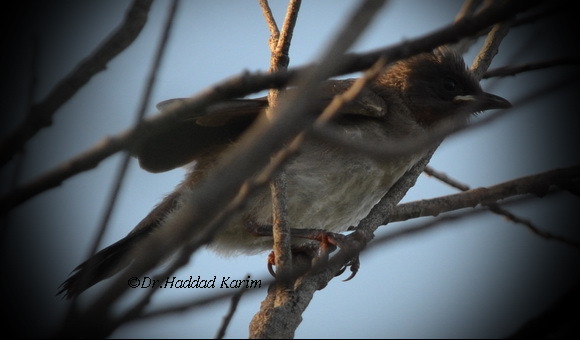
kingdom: Animalia
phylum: Chordata
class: Aves
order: Passeriformes
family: Pycnonotidae
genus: Pycnonotus
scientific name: Pycnonotus barbatus
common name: Common bulbul
